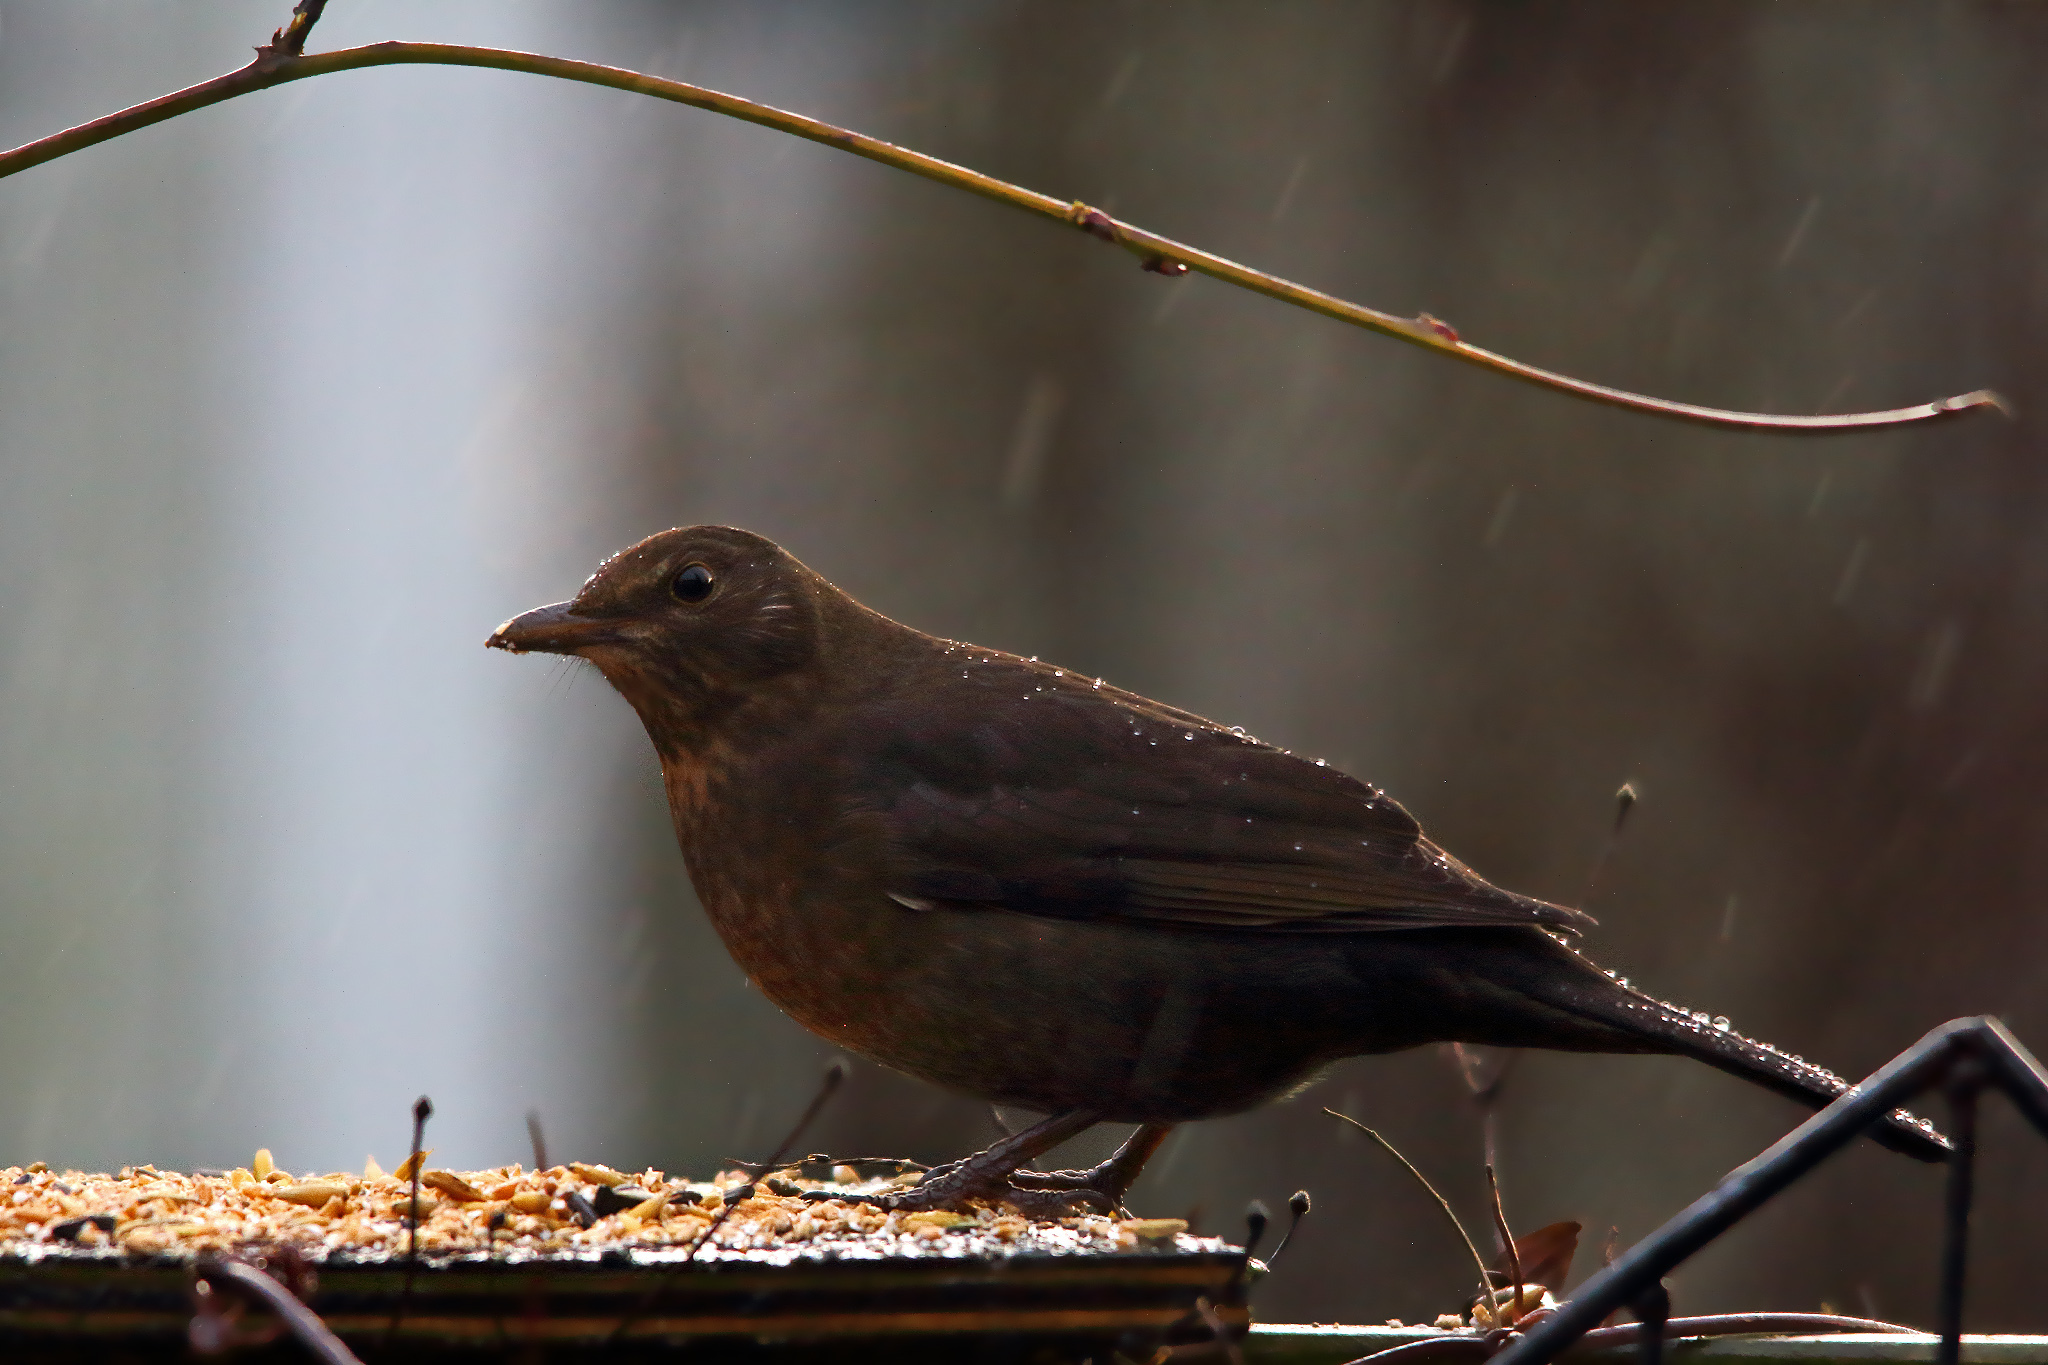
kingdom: Animalia
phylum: Chordata
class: Aves
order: Passeriformes
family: Turdidae
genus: Turdus
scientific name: Turdus merula
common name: Common blackbird
